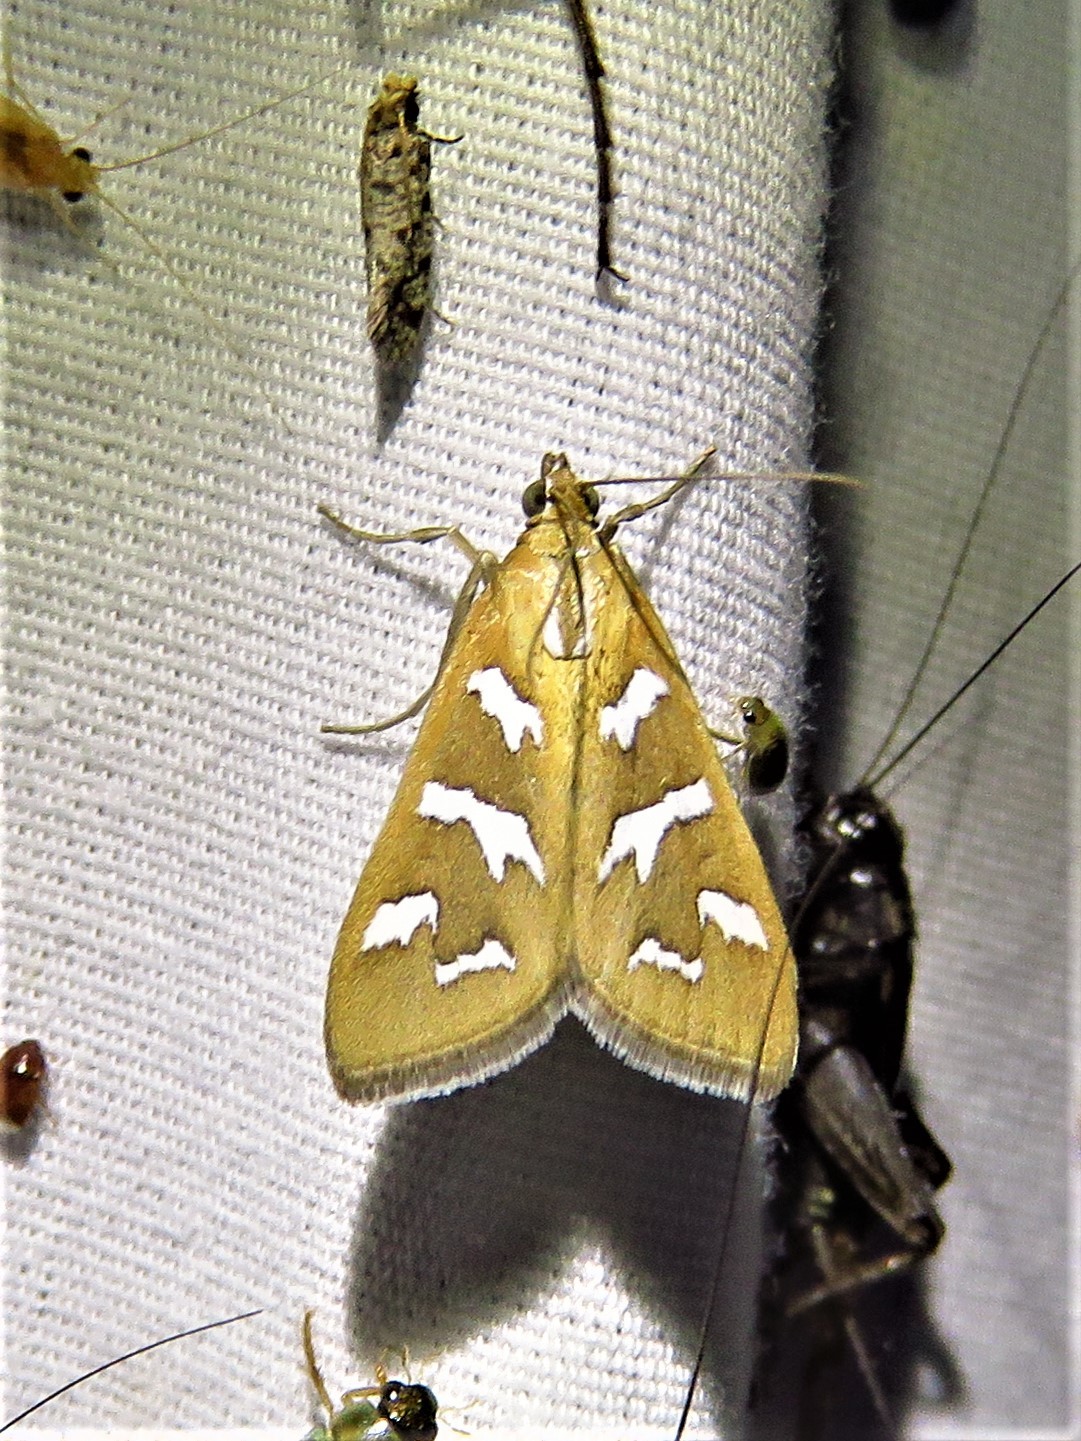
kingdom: Animalia
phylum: Arthropoda
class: Insecta
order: Lepidoptera
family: Crambidae
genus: Diastictis
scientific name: Diastictis fracturalis
